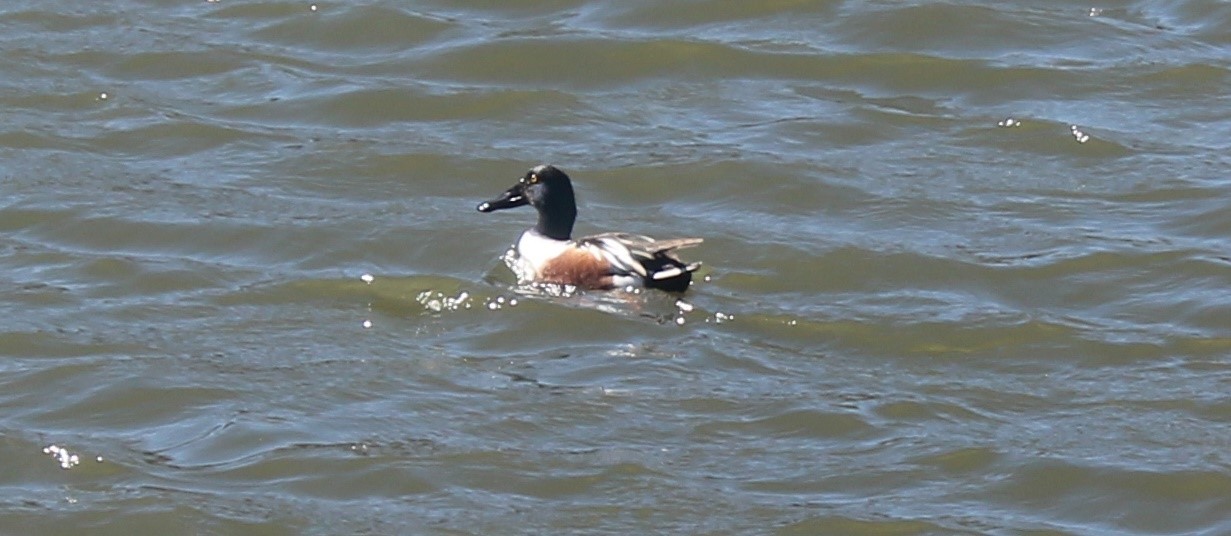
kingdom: Animalia
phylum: Chordata
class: Aves
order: Anseriformes
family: Anatidae
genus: Spatula
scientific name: Spatula clypeata
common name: Northern shoveler
